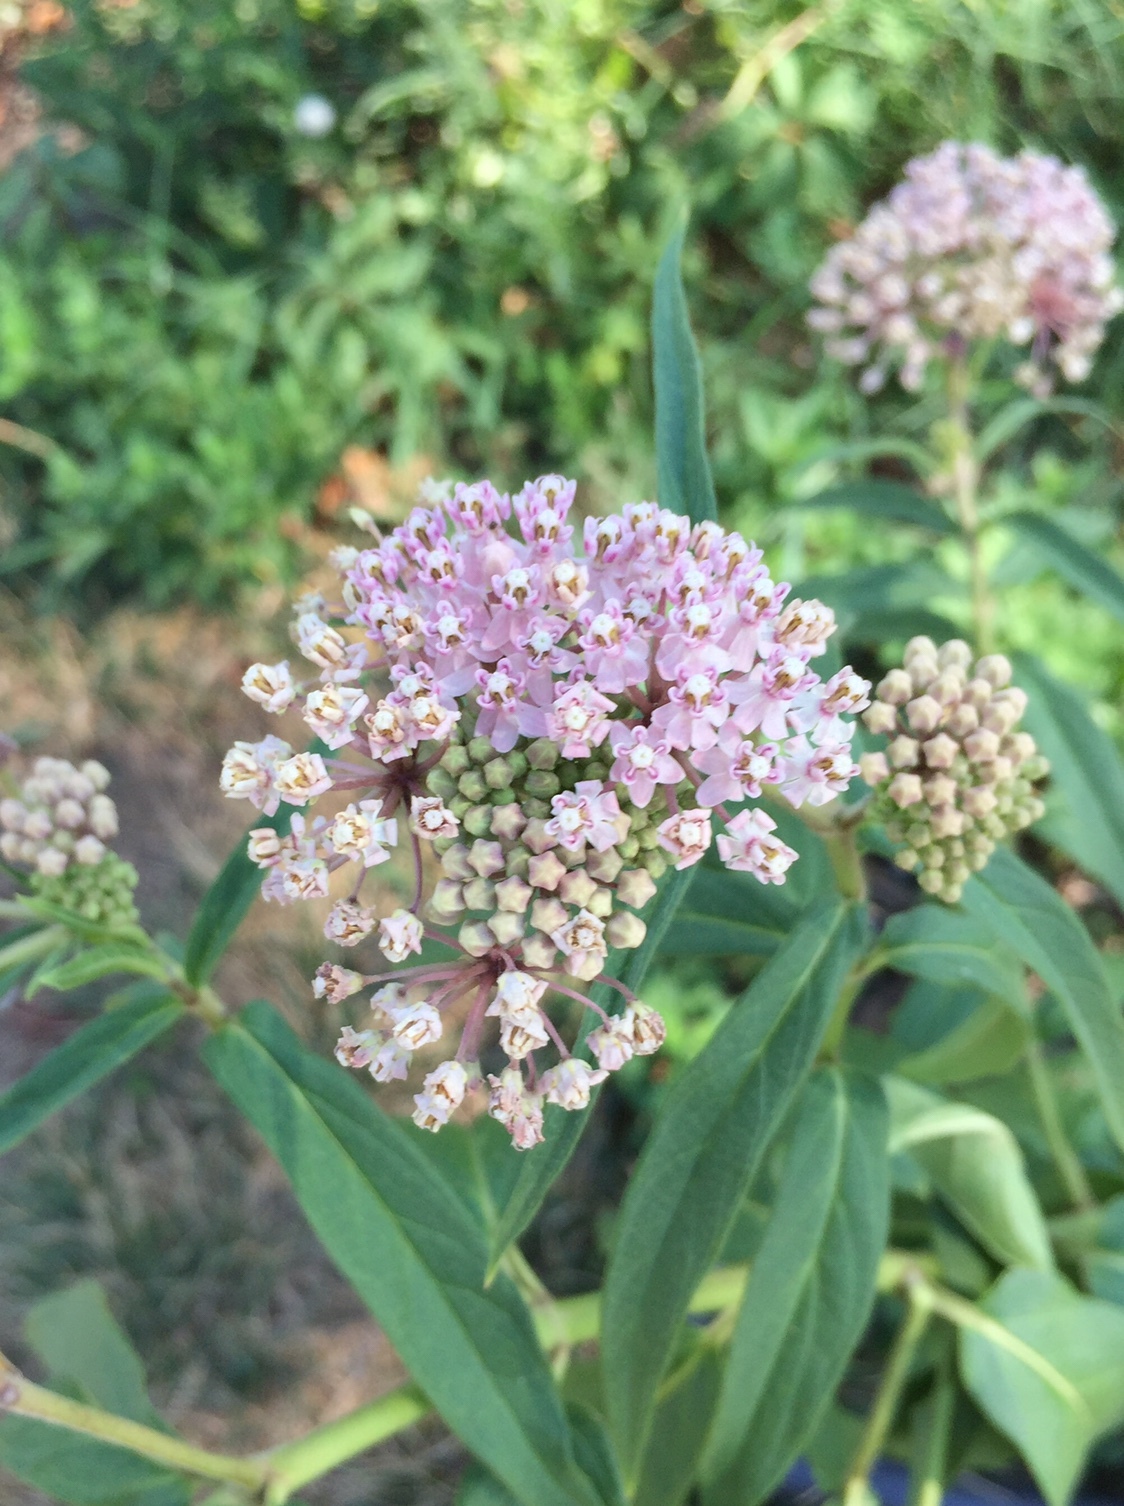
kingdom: Plantae
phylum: Tracheophyta
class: Magnoliopsida
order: Gentianales
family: Apocynaceae
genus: Asclepias
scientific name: Asclepias incarnata
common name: Swamp milkweed
